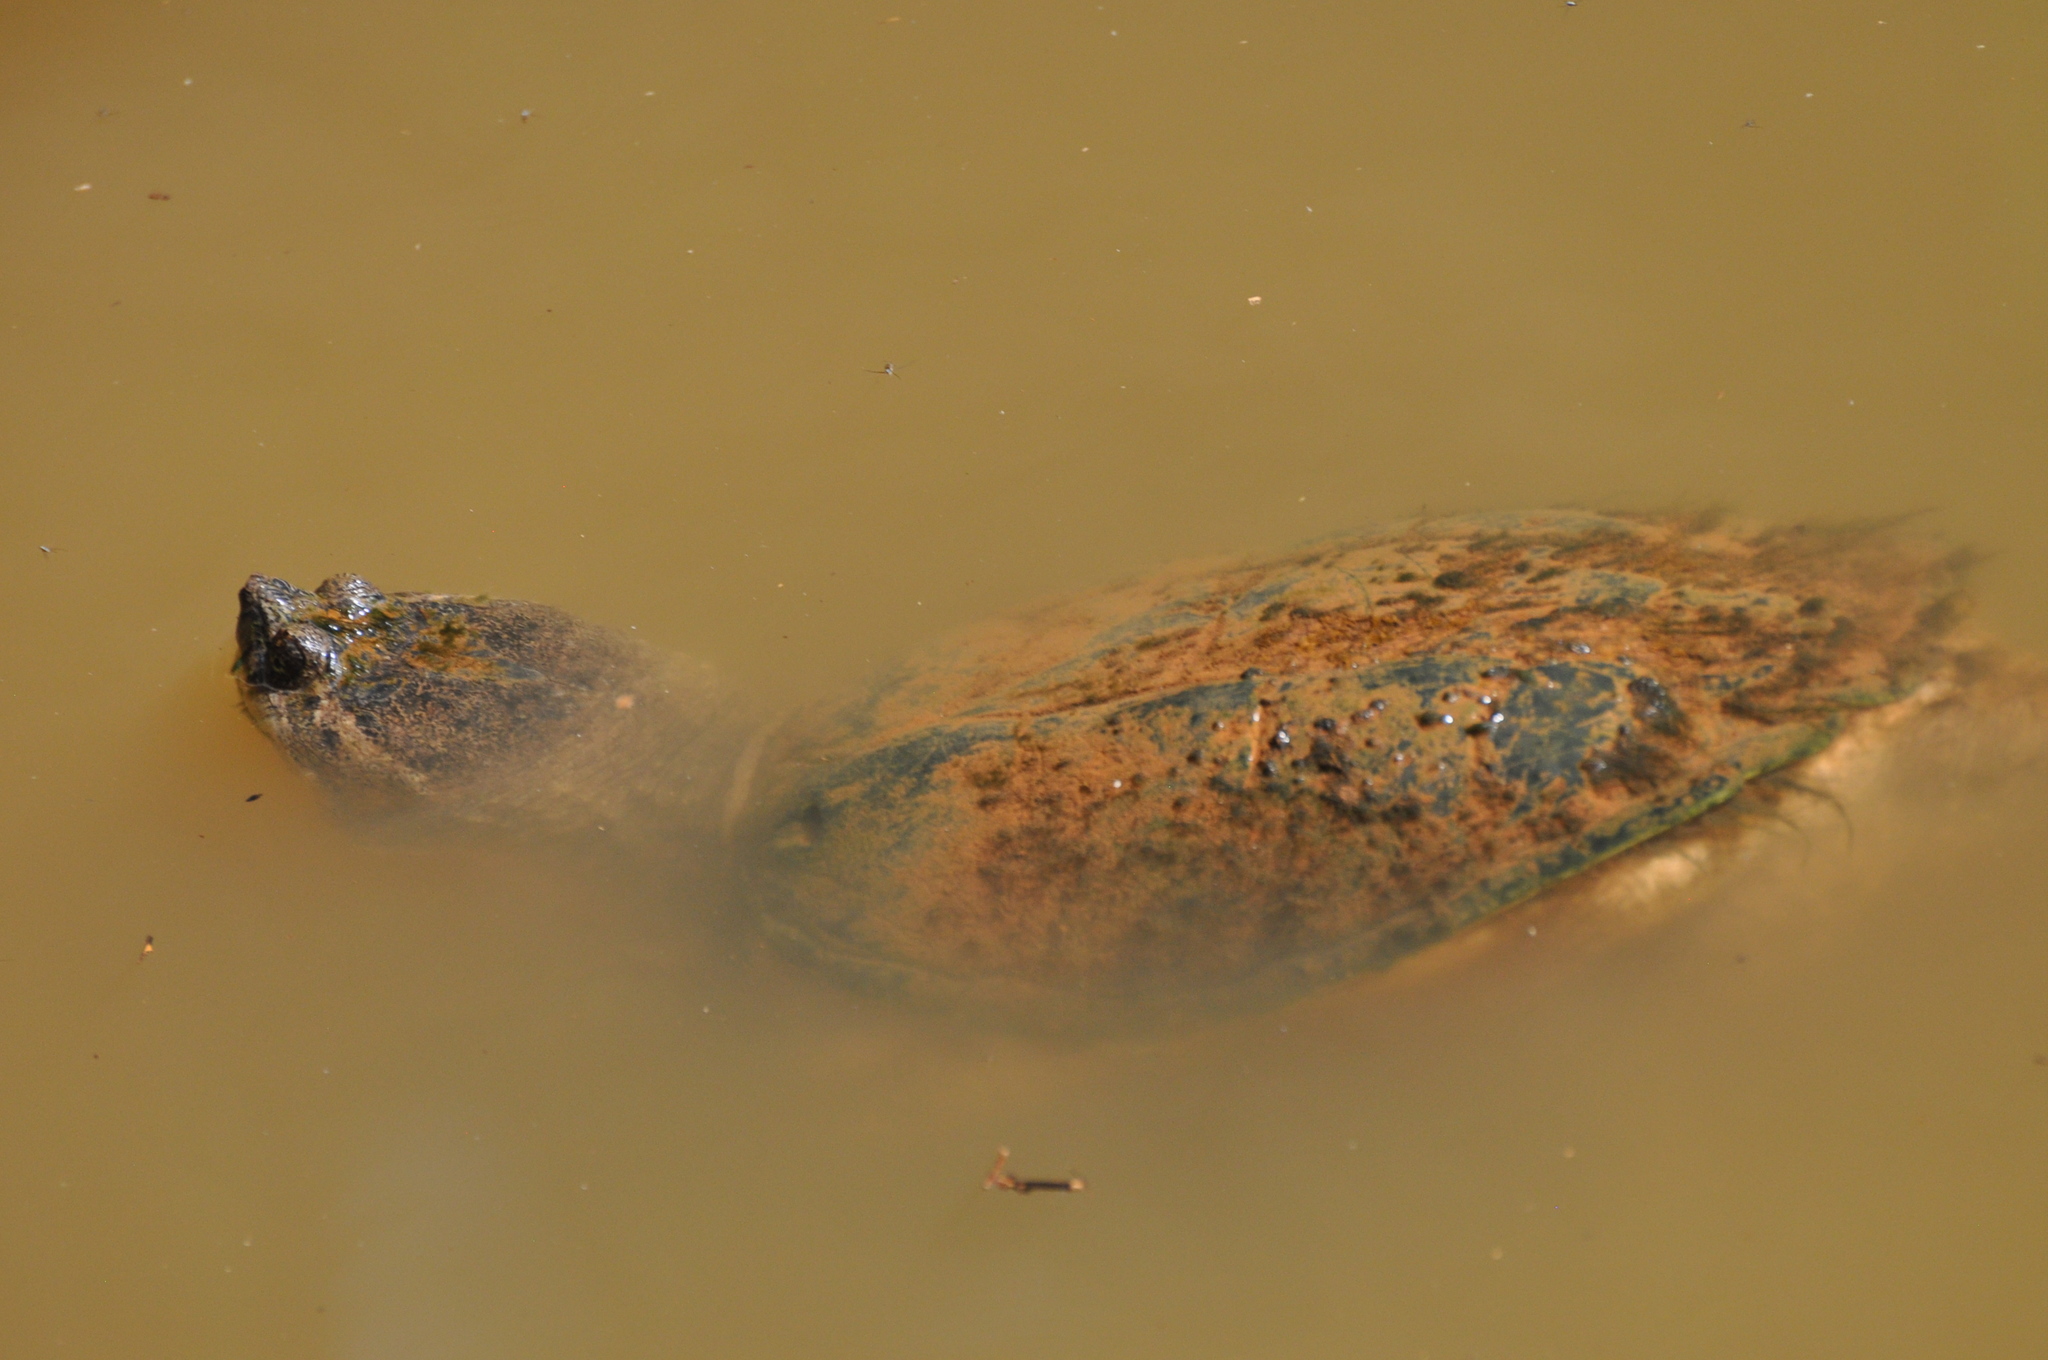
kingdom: Animalia
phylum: Chordata
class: Testudines
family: Chelydridae
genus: Chelydra
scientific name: Chelydra serpentina
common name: Common snapping turtle
